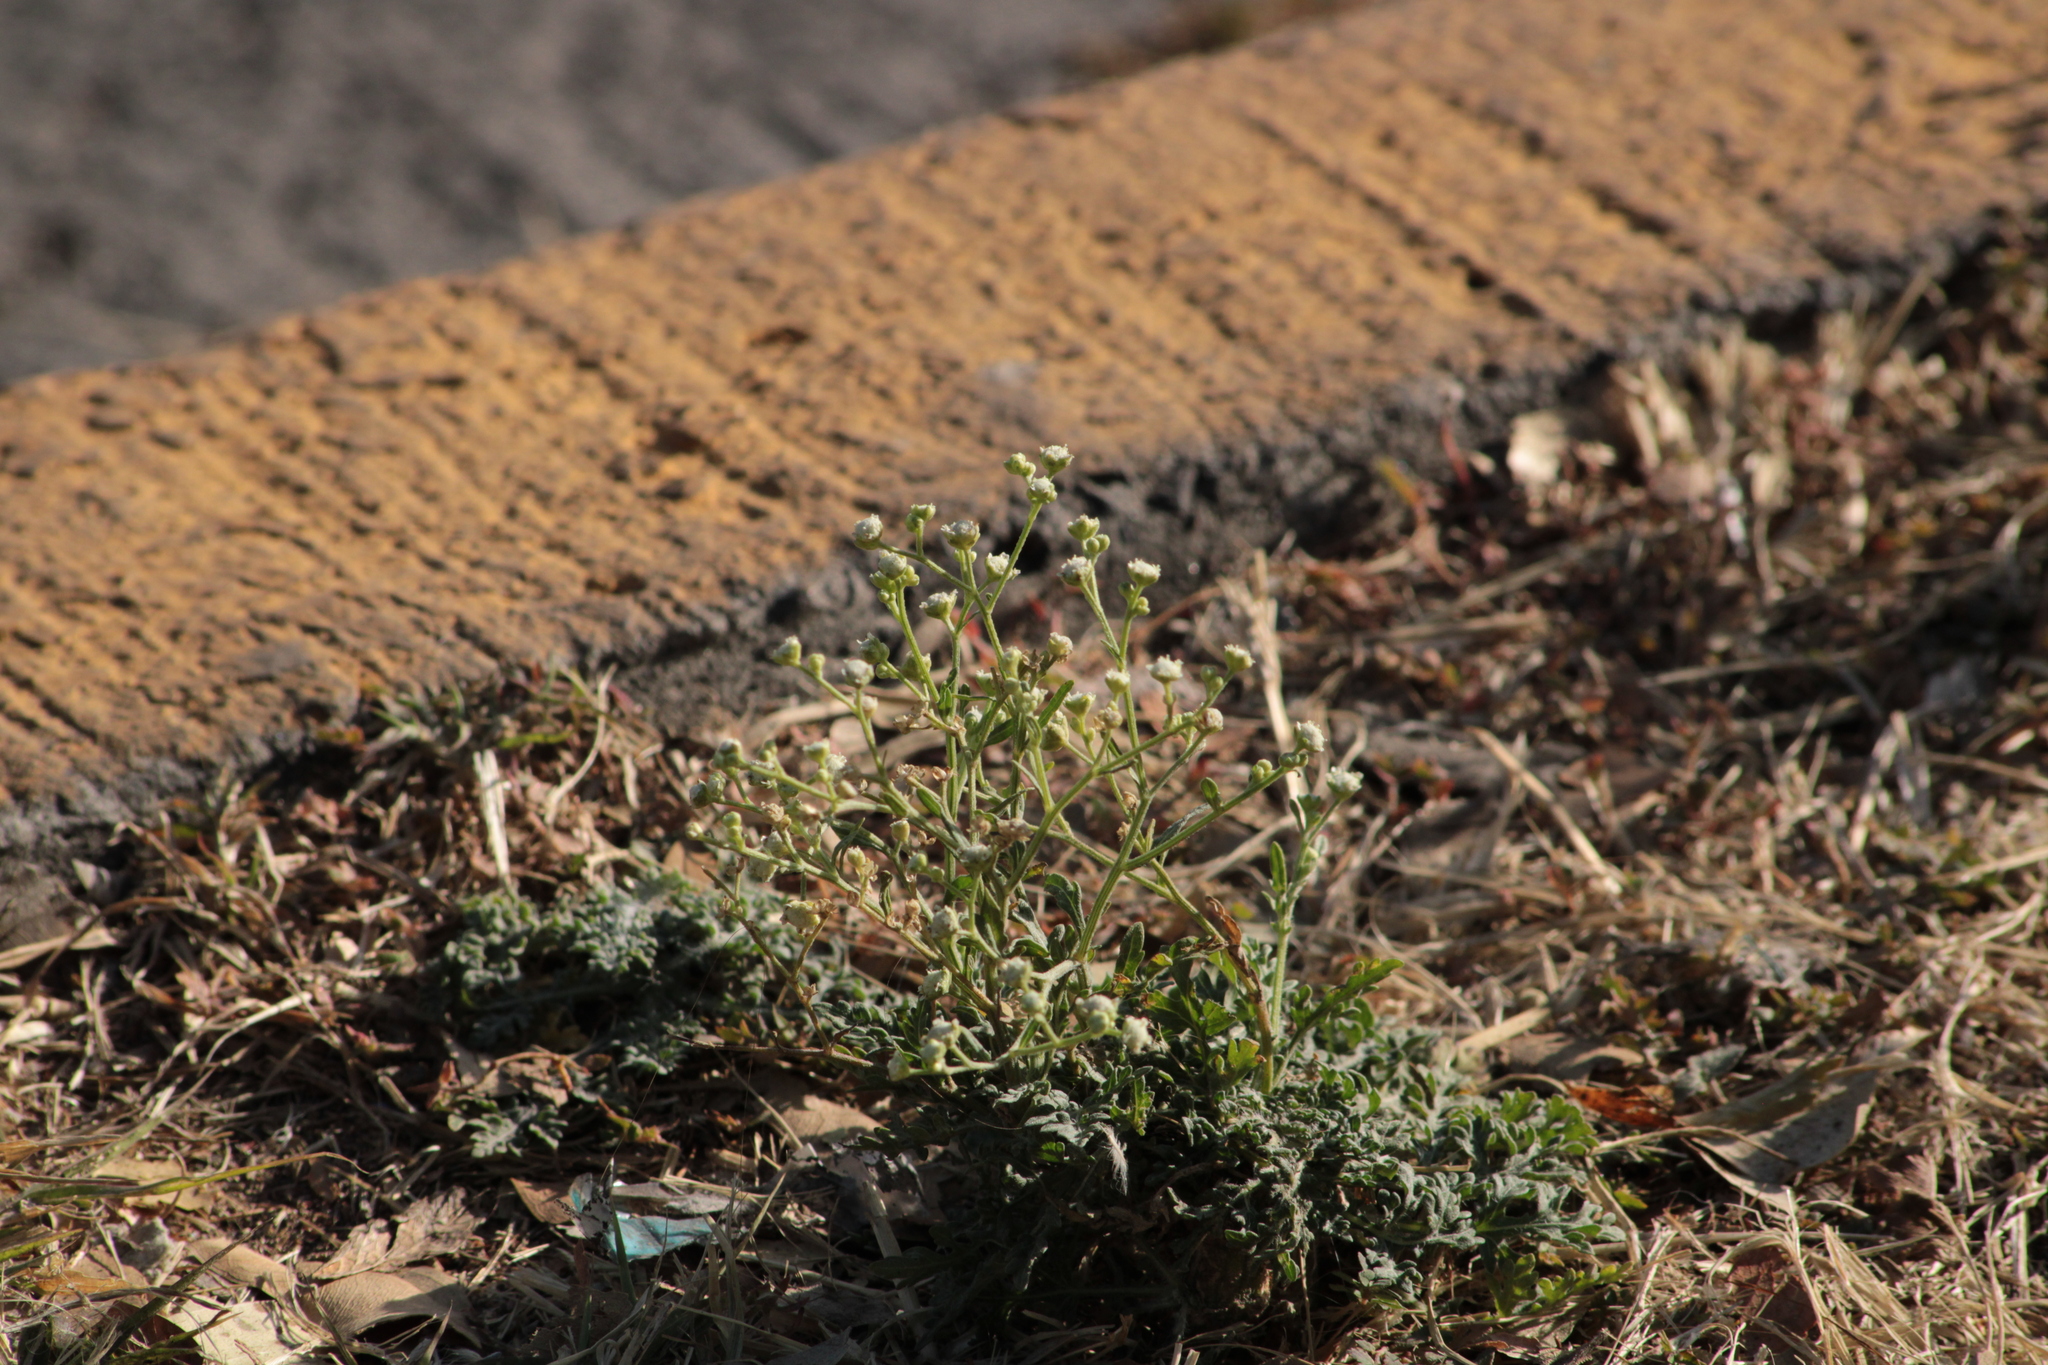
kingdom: Plantae
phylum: Tracheophyta
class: Magnoliopsida
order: Asterales
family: Asteraceae
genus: Parthenium
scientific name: Parthenium hysterophorus
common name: Santa maria feverfew
